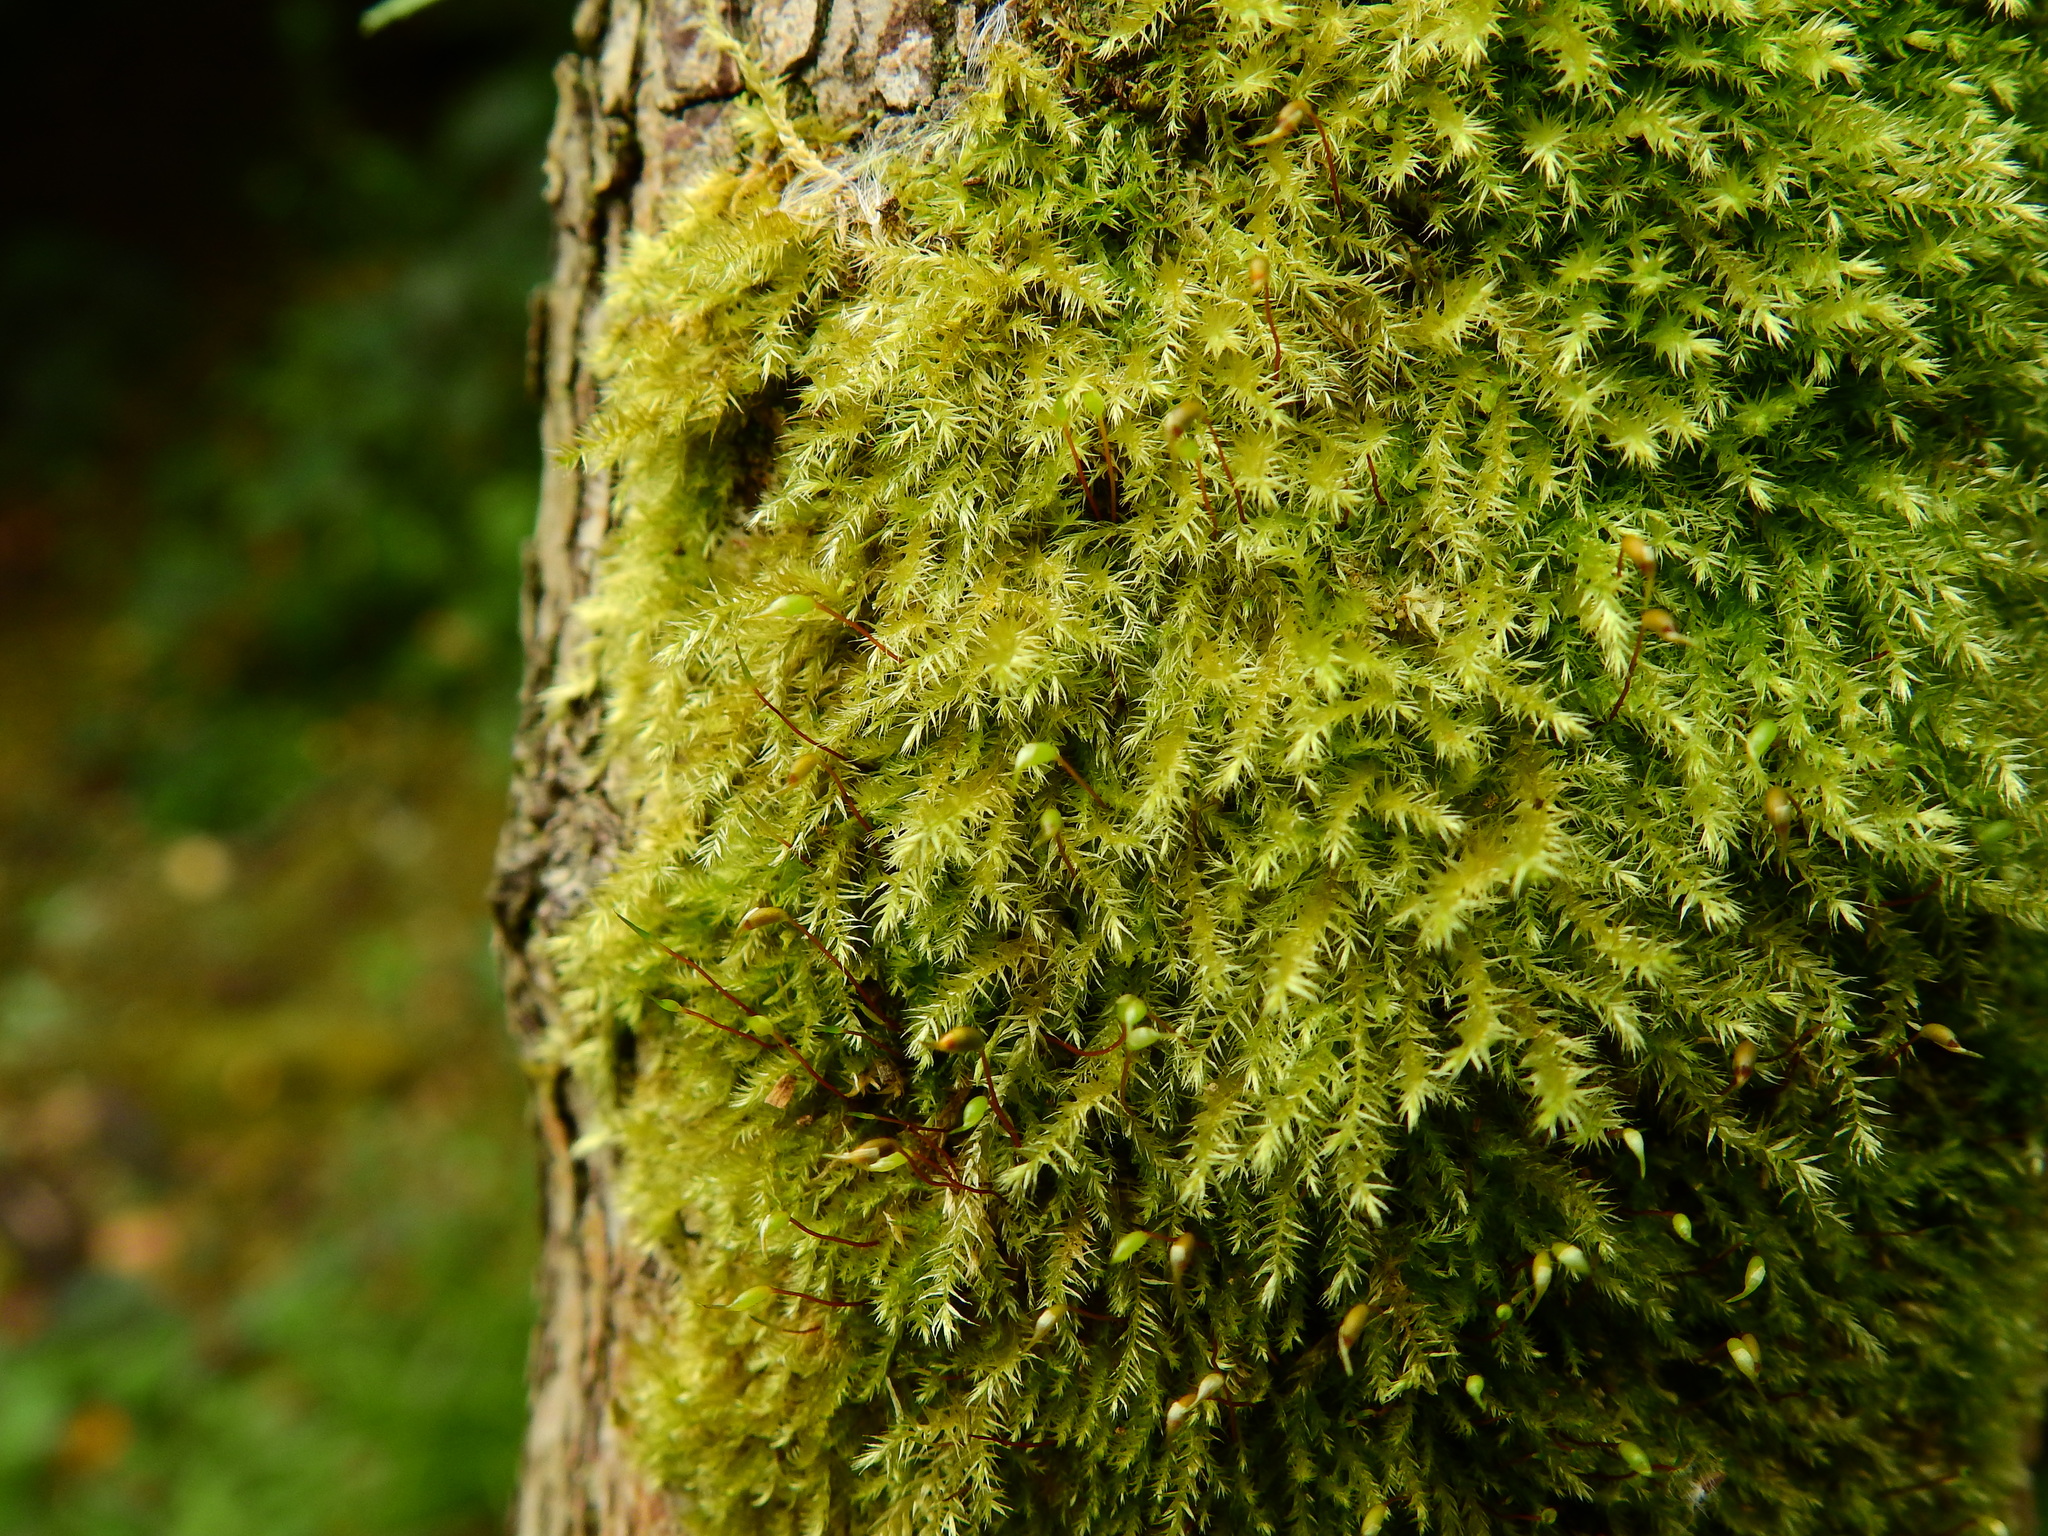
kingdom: Plantae
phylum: Bryophyta
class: Bryopsida
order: Hypnales
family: Brachytheciaceae
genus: Brachythecium
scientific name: Brachythecium rutabulum
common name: Rough-stalked feather-moss
